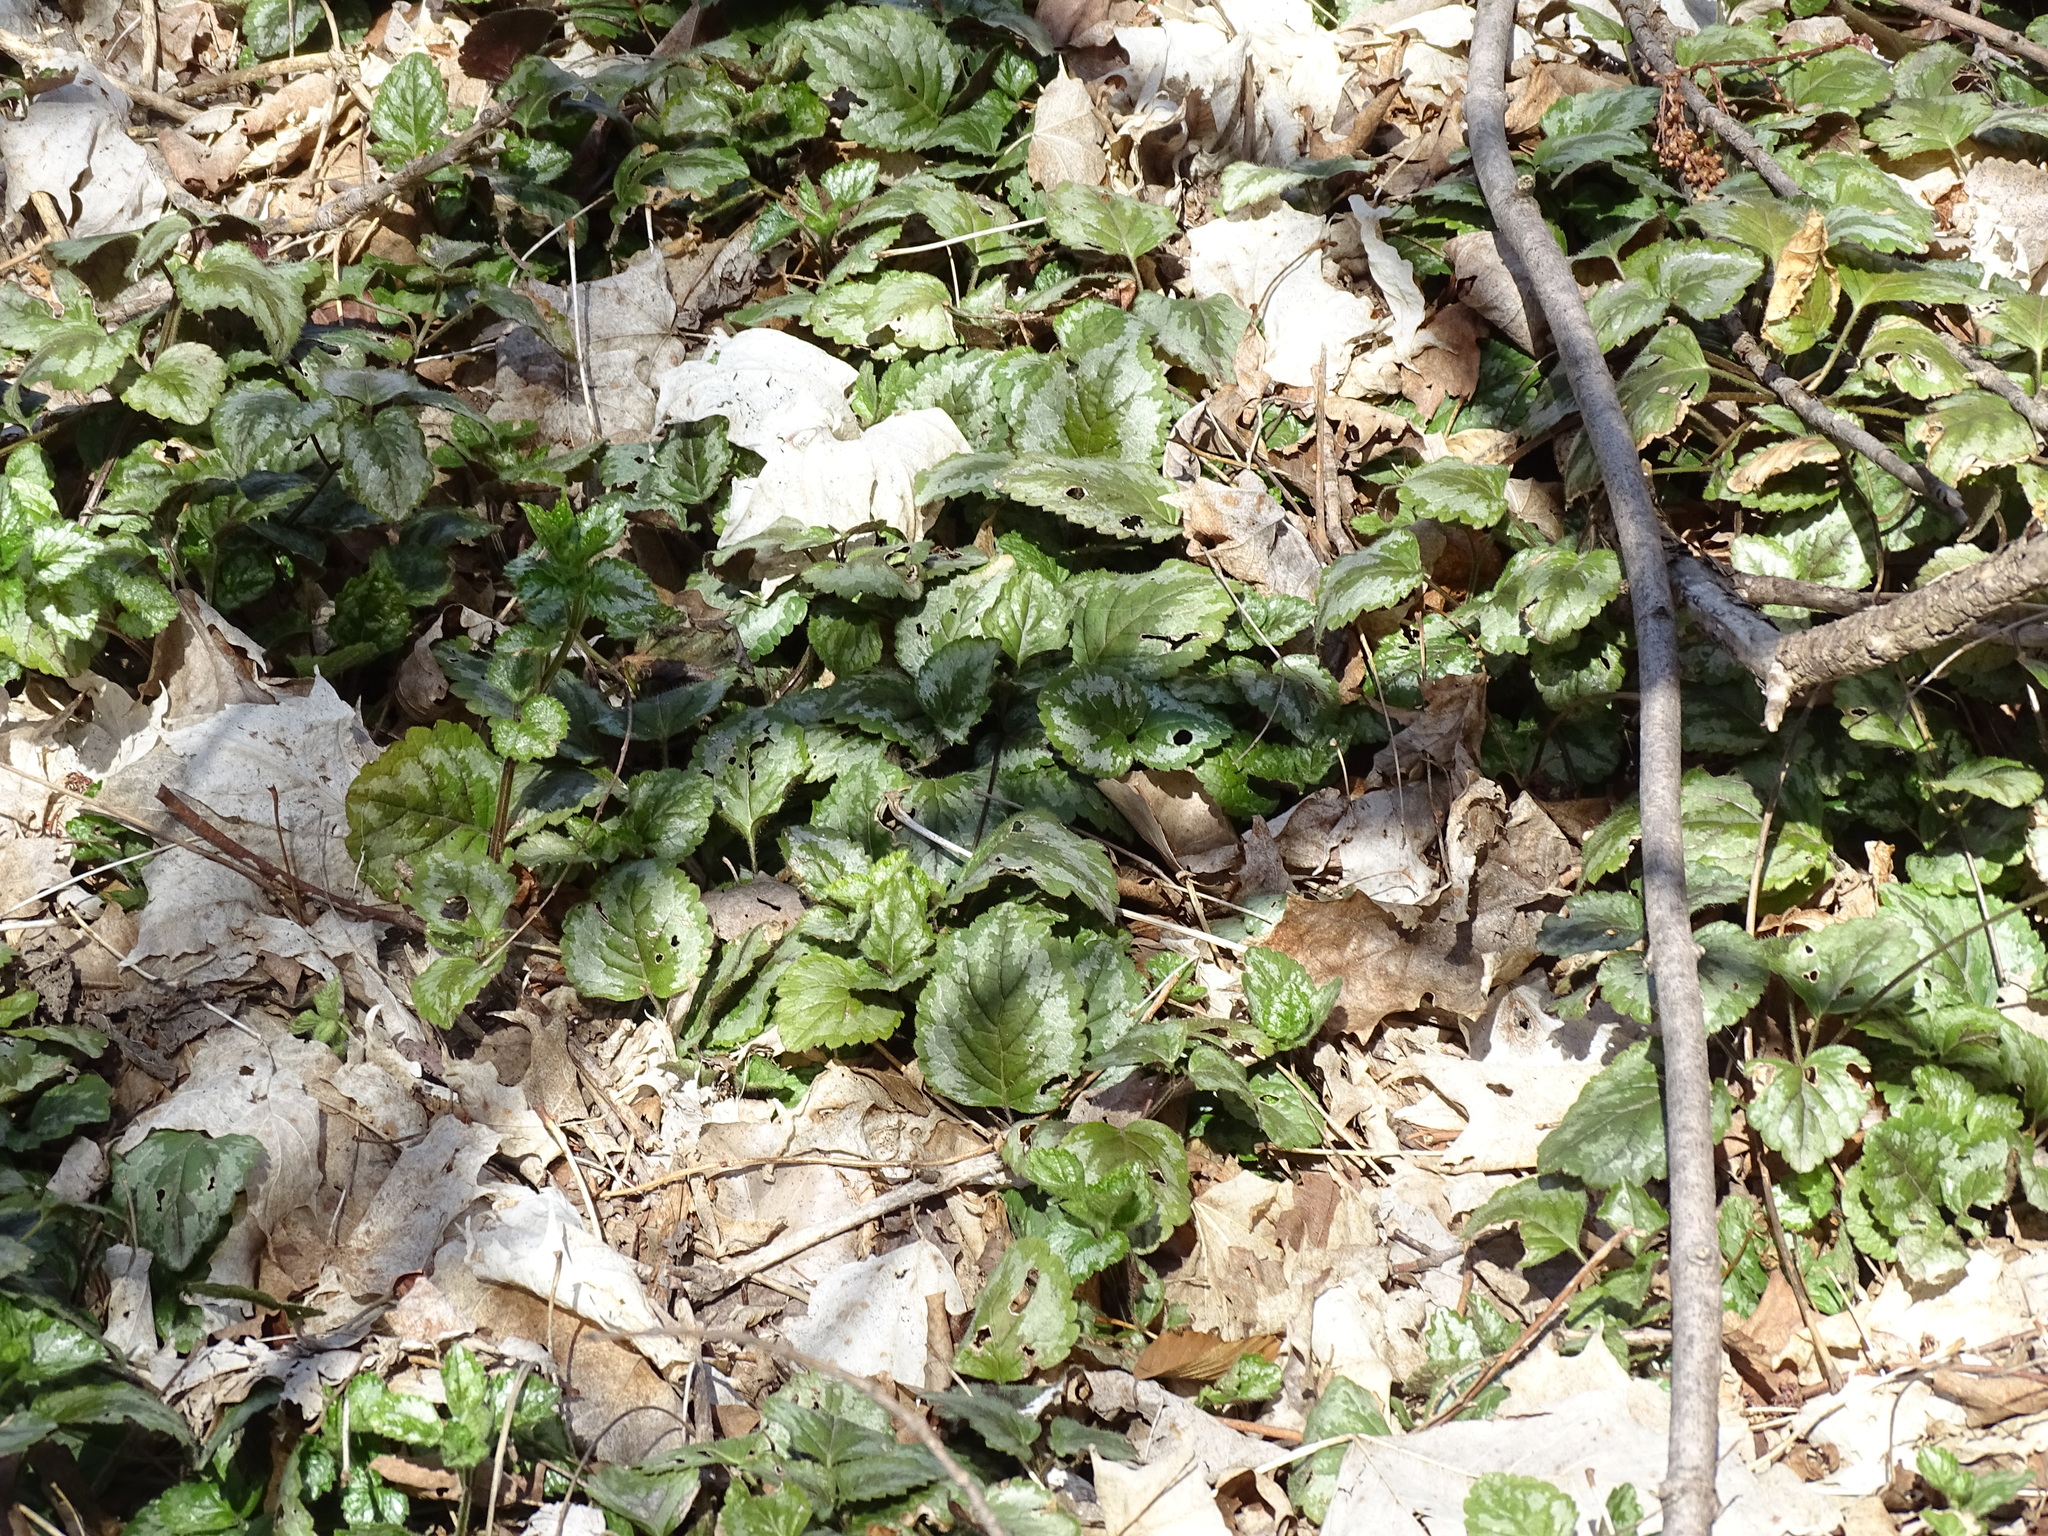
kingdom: Plantae
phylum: Tracheophyta
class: Magnoliopsida
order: Lamiales
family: Lamiaceae
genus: Lamium
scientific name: Lamium galeobdolon
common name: Yellow archangel
